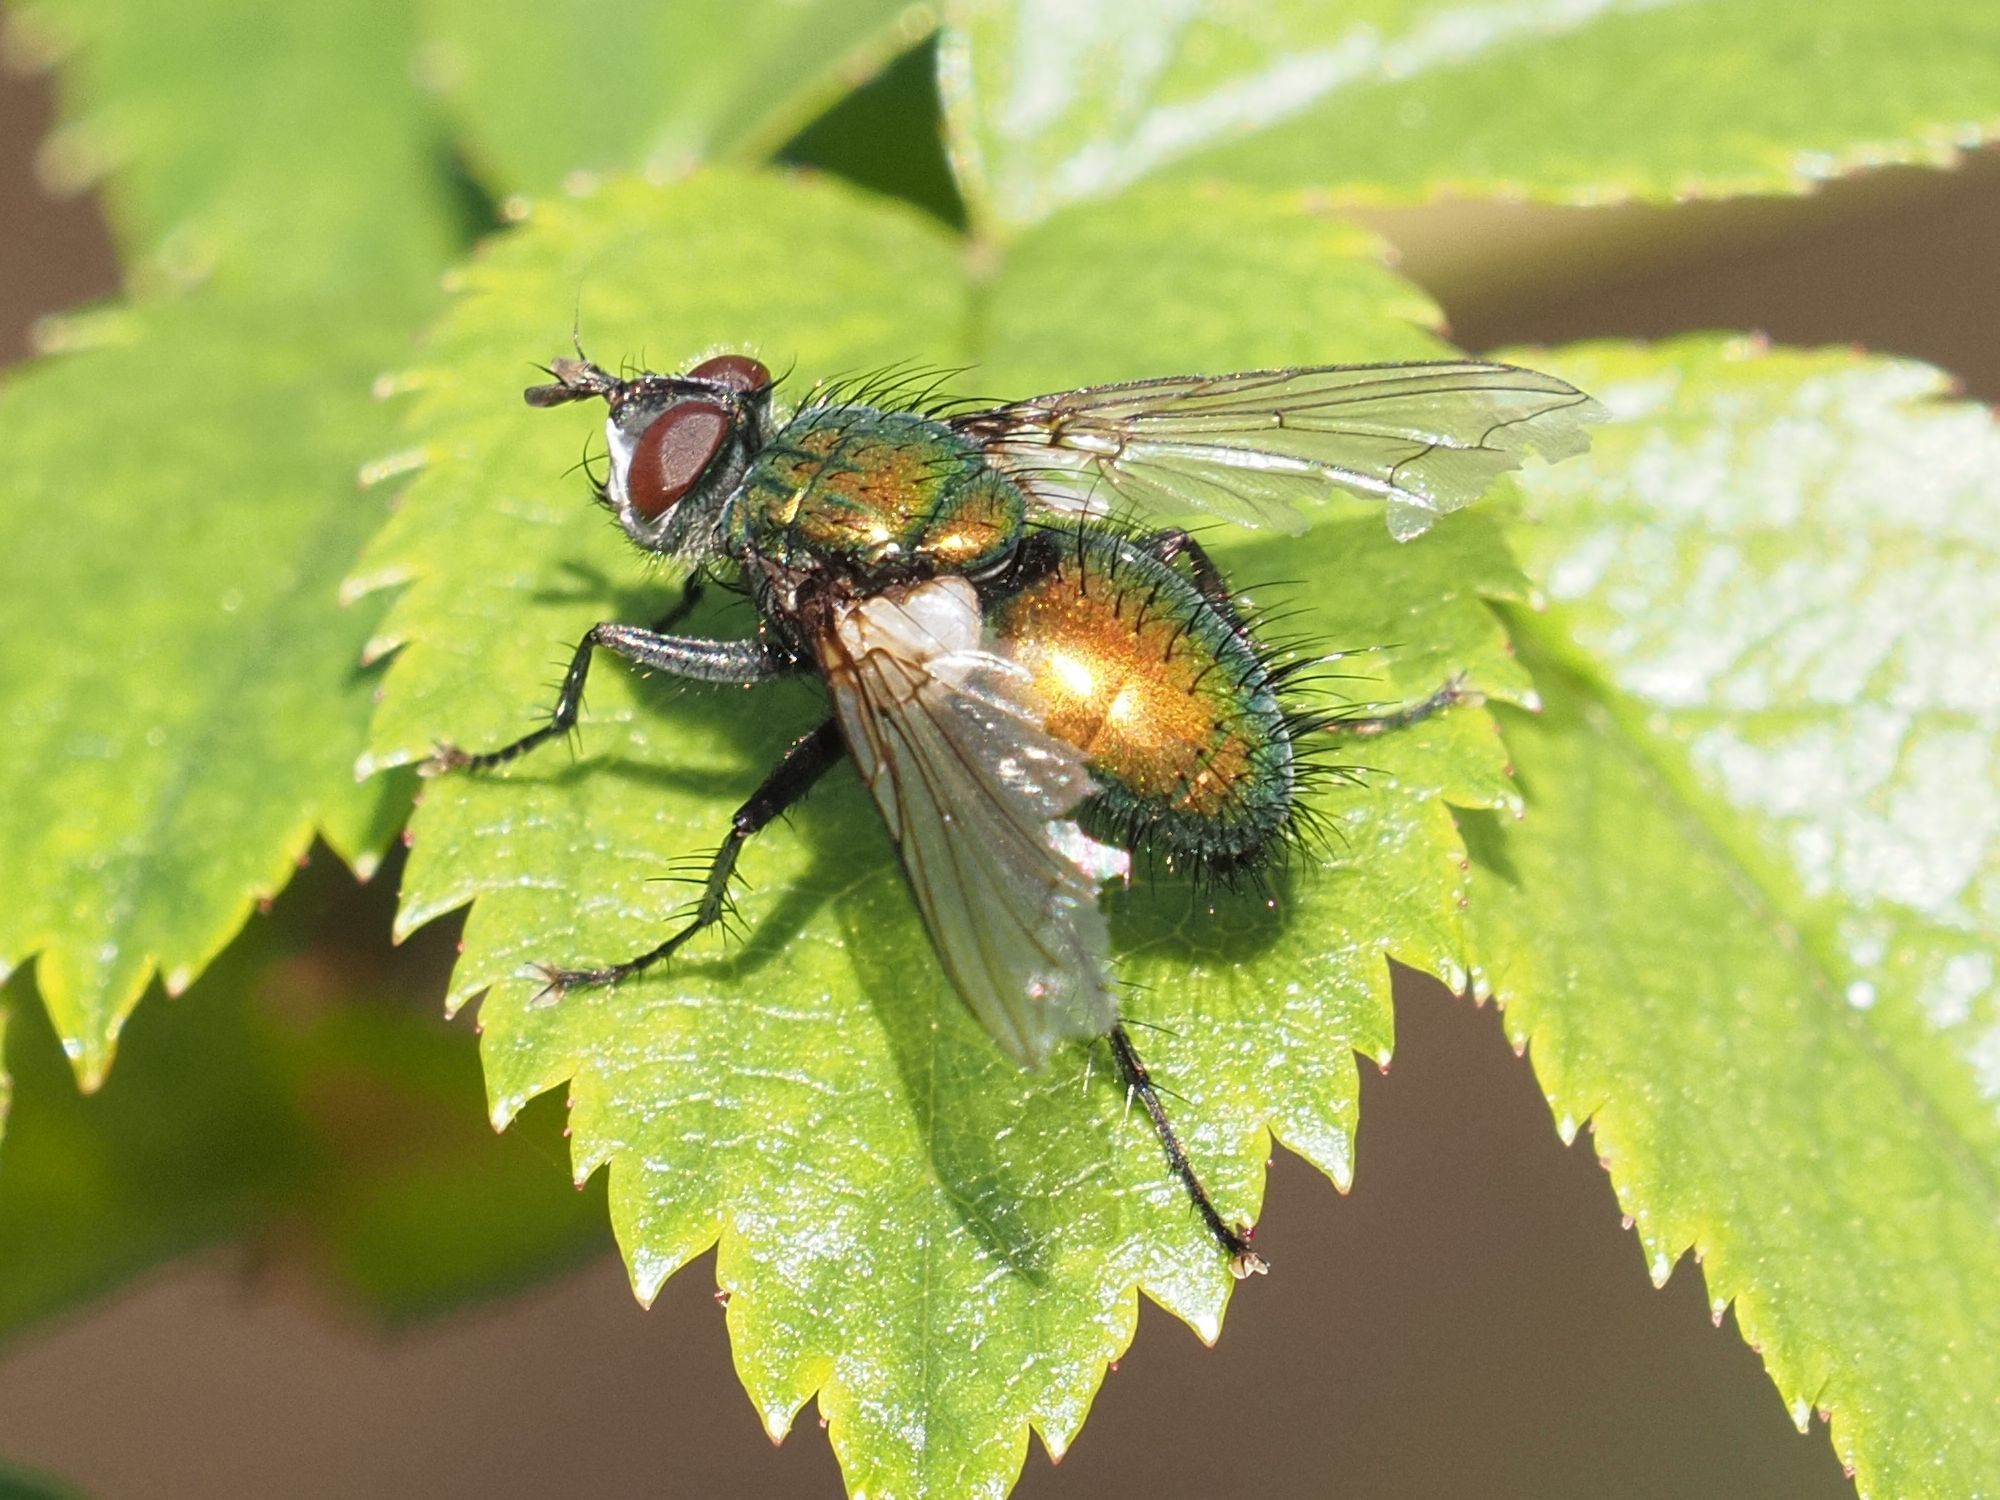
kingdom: Animalia
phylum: Arthropoda
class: Insecta
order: Diptera
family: Tachinidae
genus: Gymnocheta
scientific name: Gymnocheta viridis
